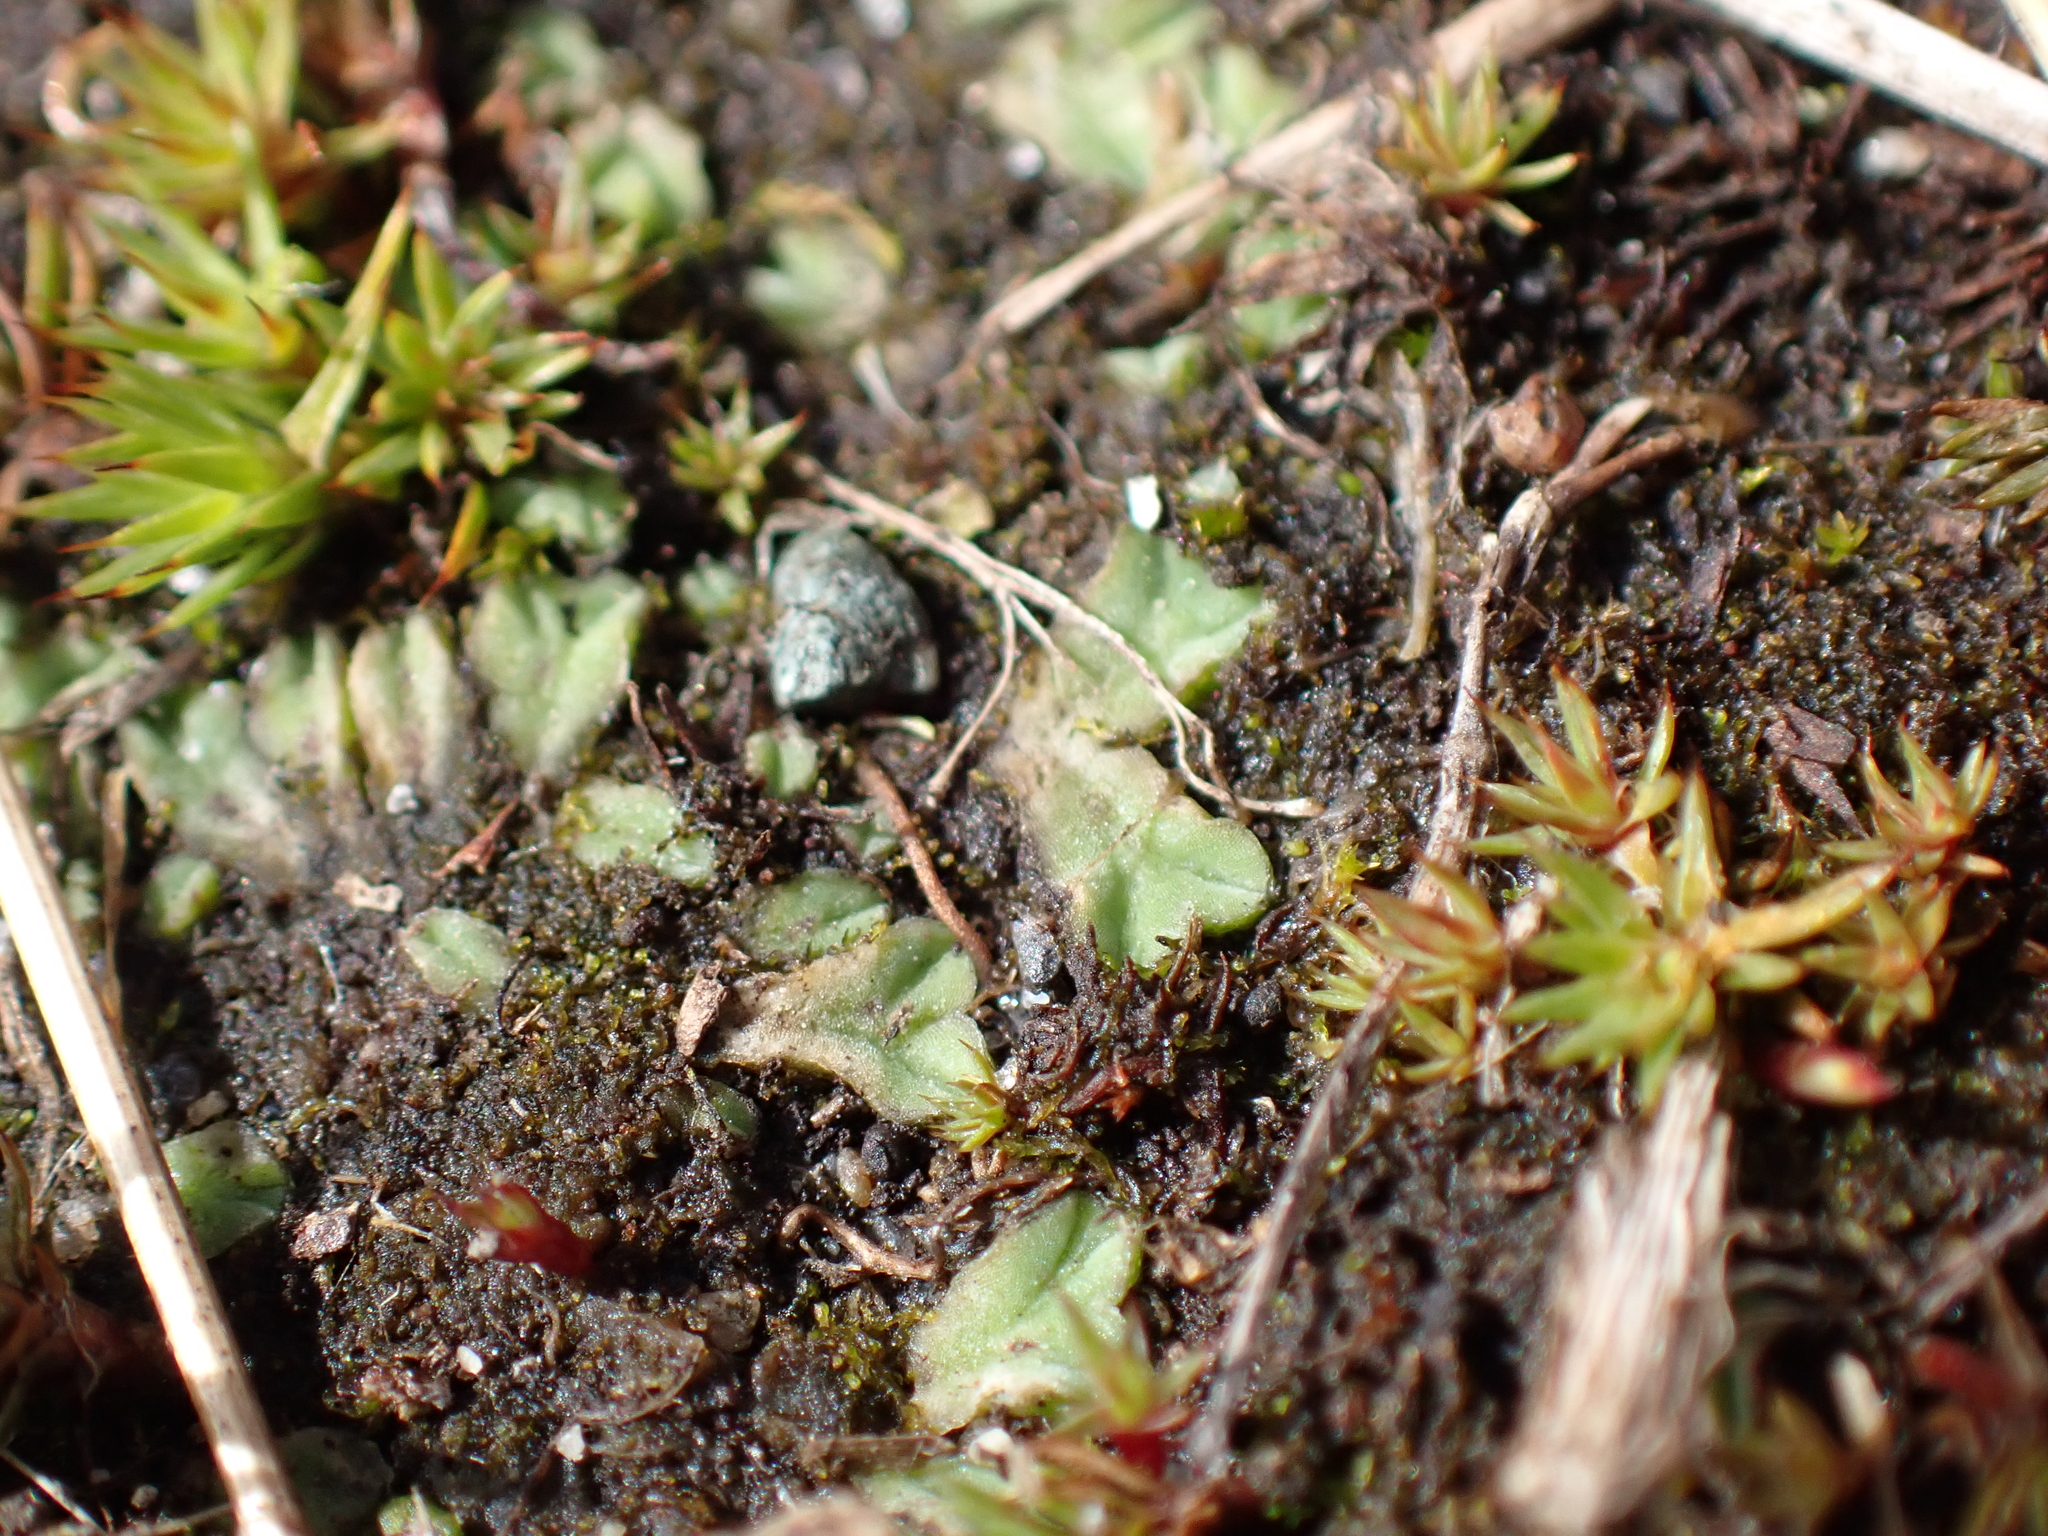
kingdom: Plantae
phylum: Marchantiophyta
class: Marchantiopsida
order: Marchantiales
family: Ricciaceae
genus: Riccia
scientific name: Riccia sorocarpa
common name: Common crystalwort
